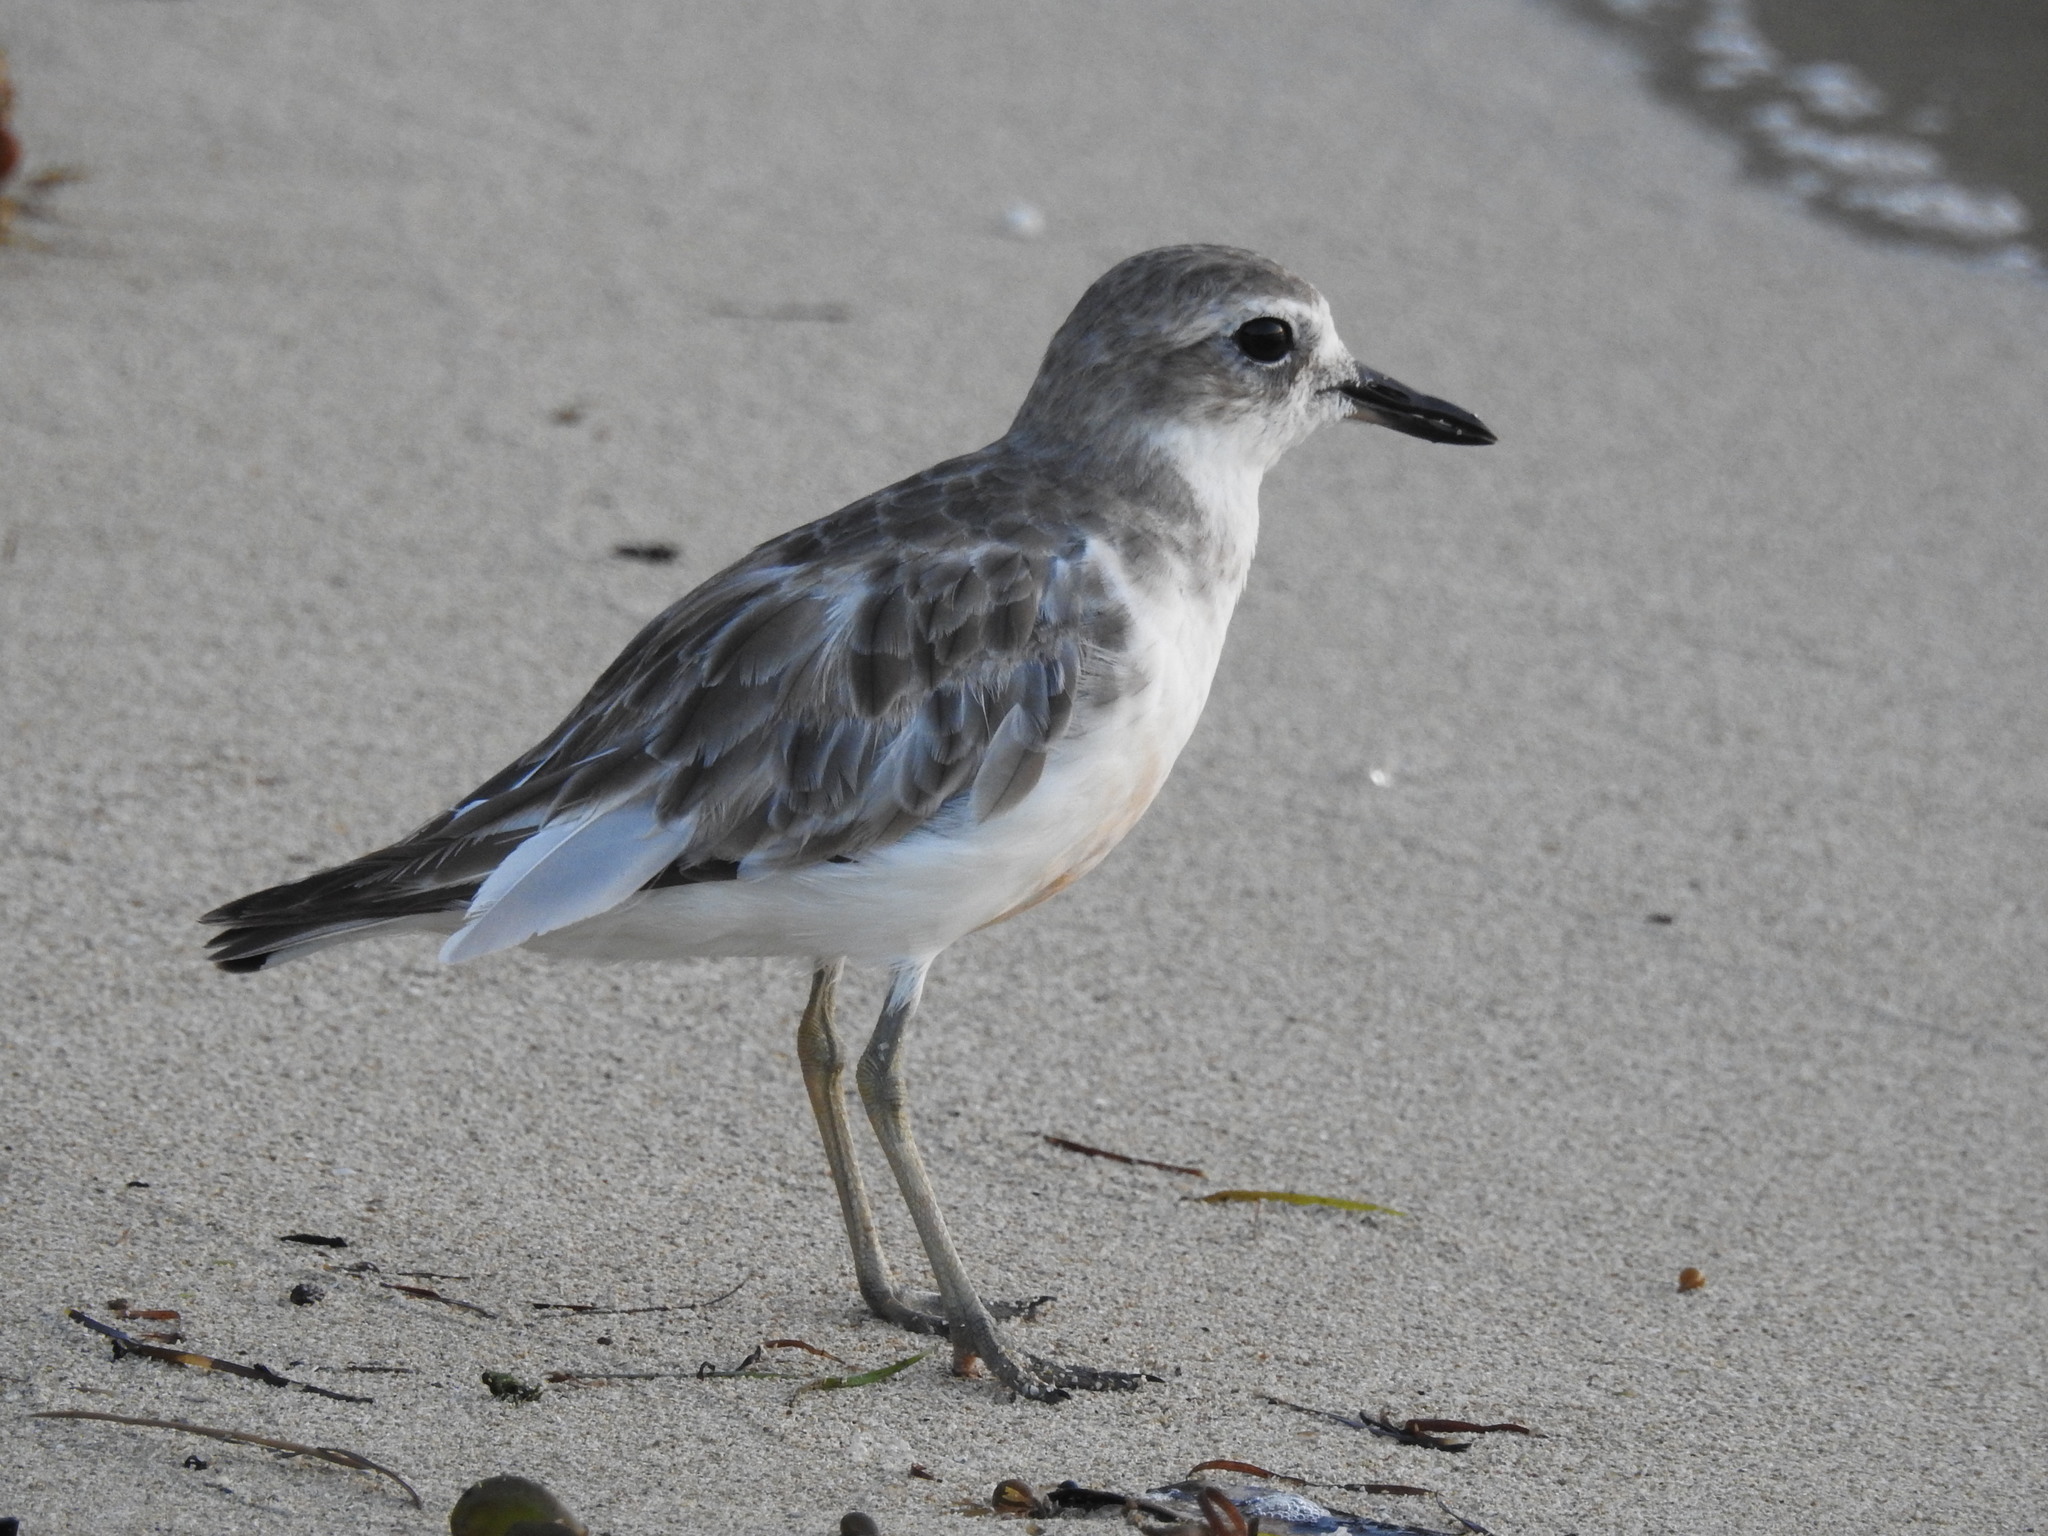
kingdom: Animalia
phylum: Chordata
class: Aves
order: Charadriiformes
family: Charadriidae
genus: Anarhynchus
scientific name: Anarhynchus
